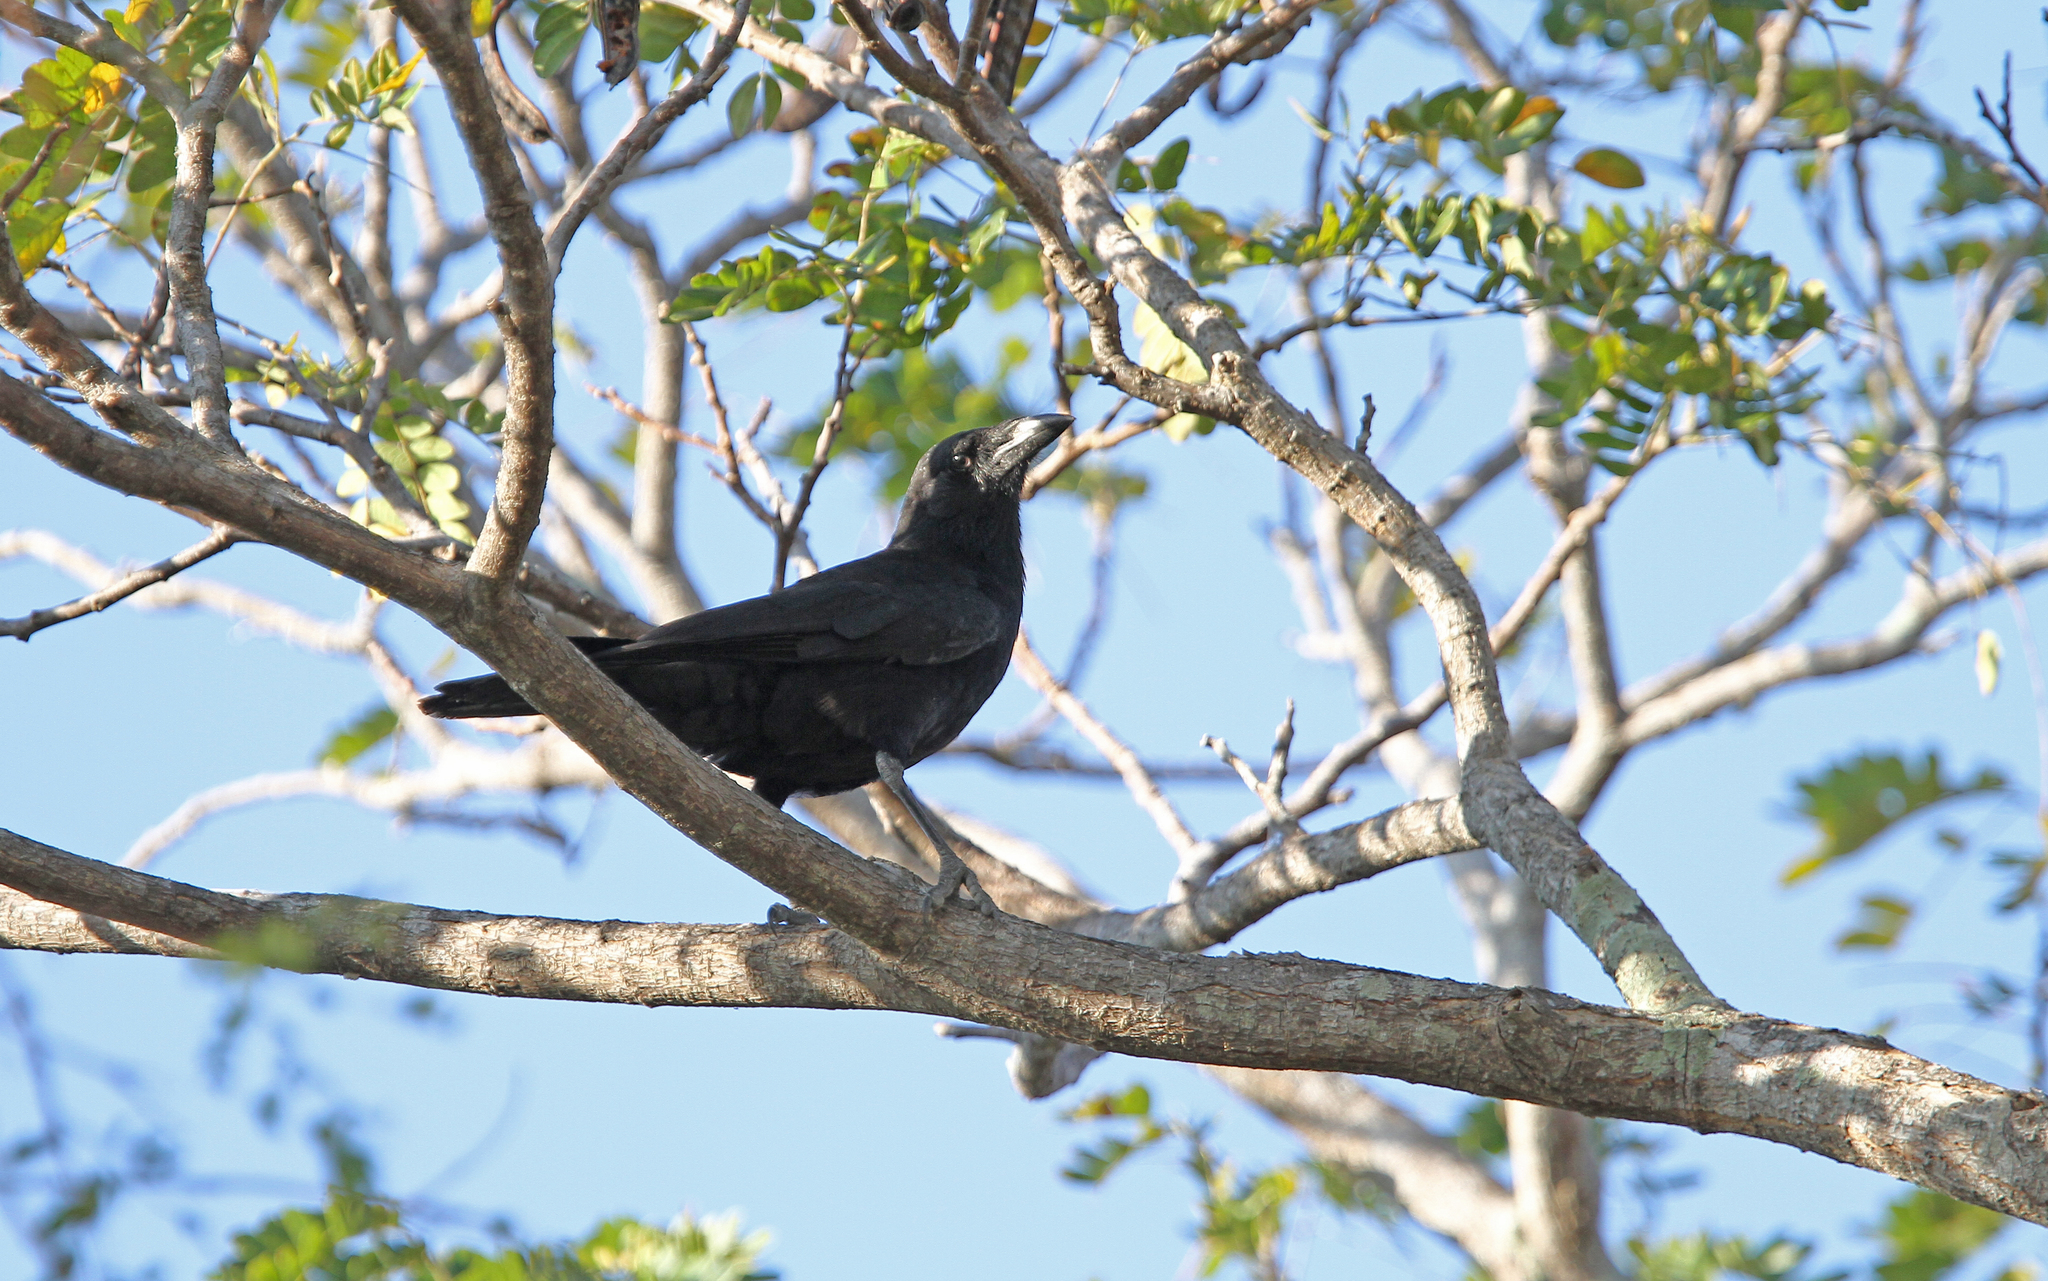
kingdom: Animalia
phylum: Chordata
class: Aves
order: Passeriformes
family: Corvidae
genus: Corvus
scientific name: Corvus minutus
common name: Cuban palm crow
